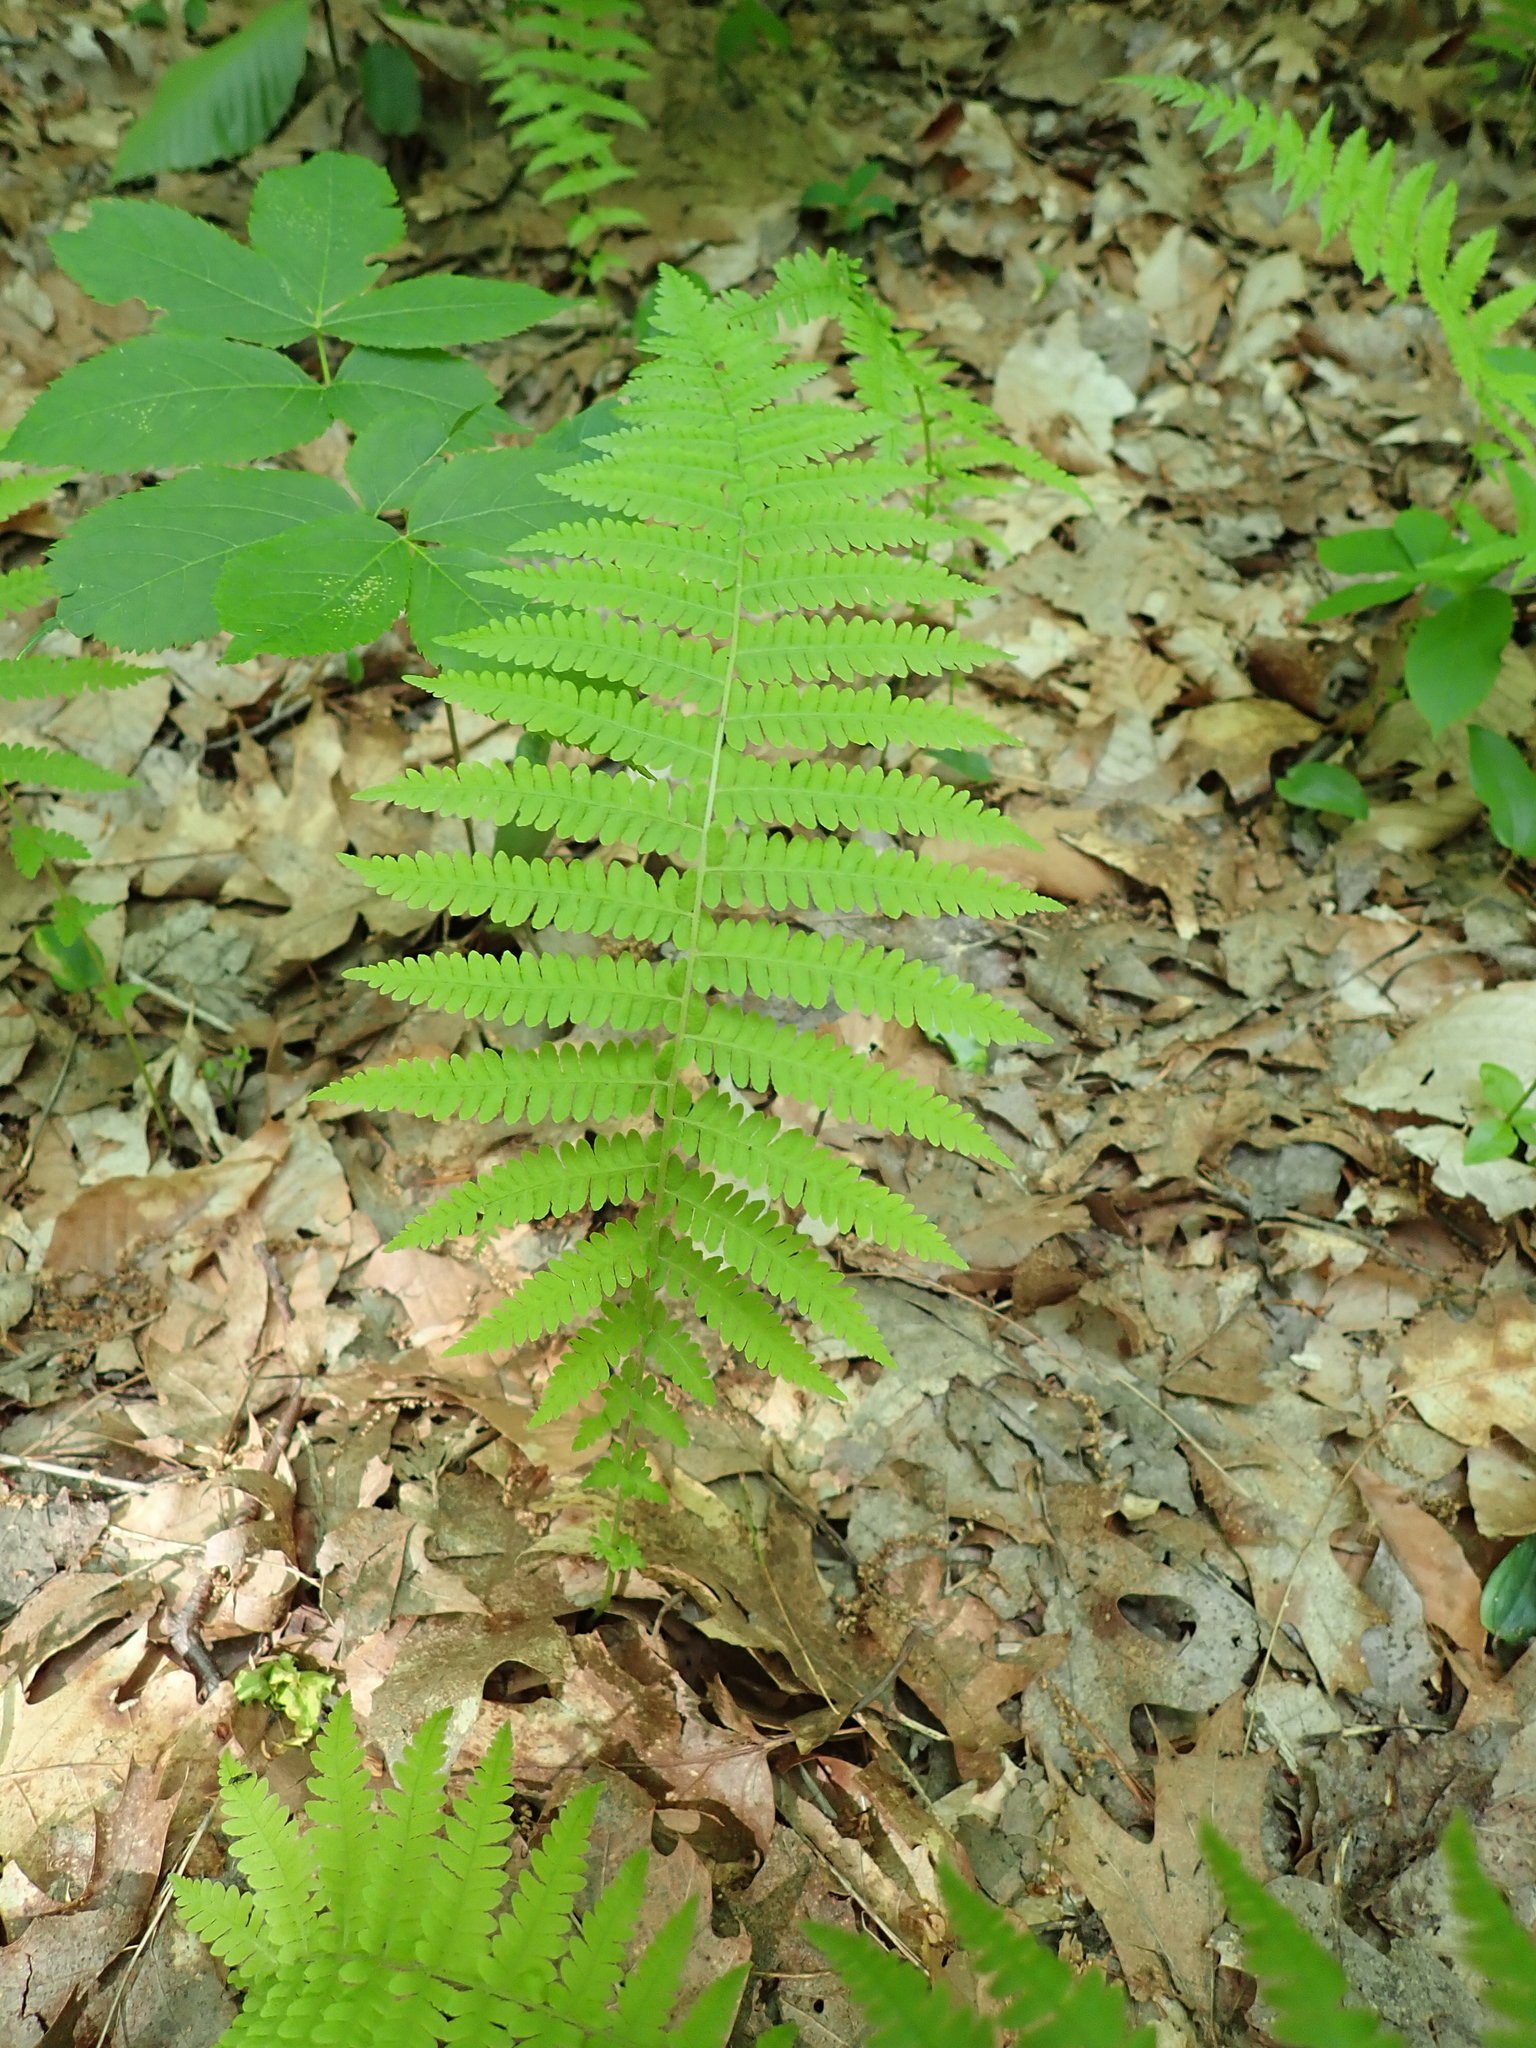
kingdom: Plantae
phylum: Tracheophyta
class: Polypodiopsida
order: Polypodiales
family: Thelypteridaceae
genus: Amauropelta
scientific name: Amauropelta noveboracensis
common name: New york fern
